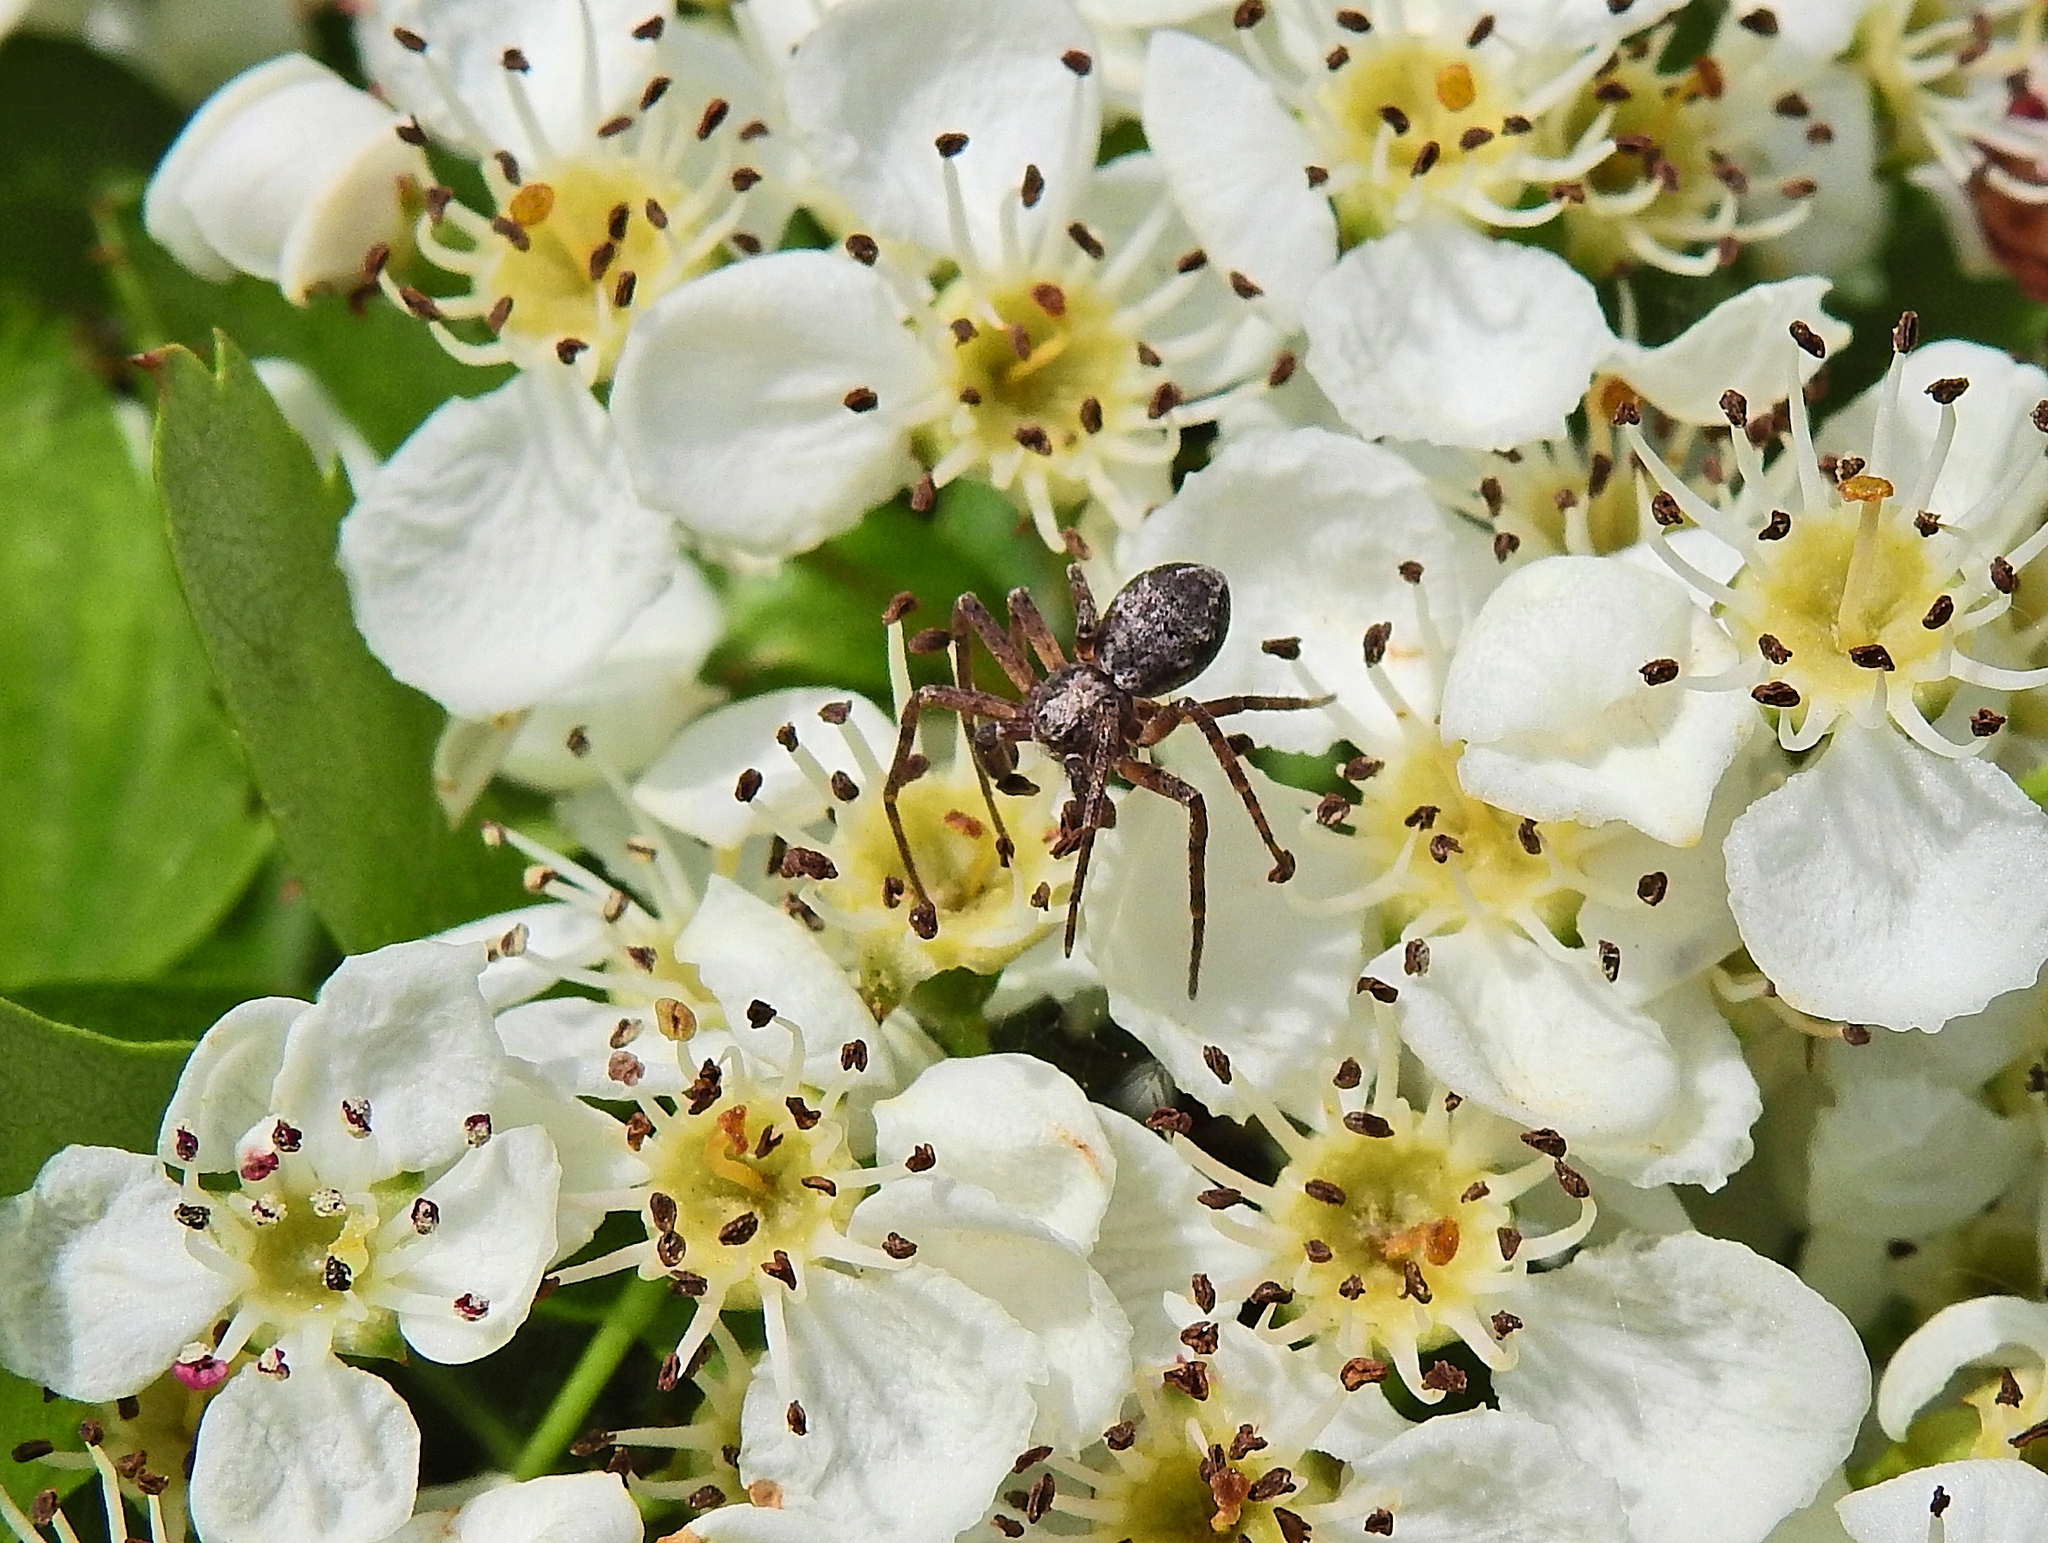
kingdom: Animalia
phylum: Arthropoda
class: Arachnida
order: Araneae
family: Philodromidae
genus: Philodromus
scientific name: Philodromus
